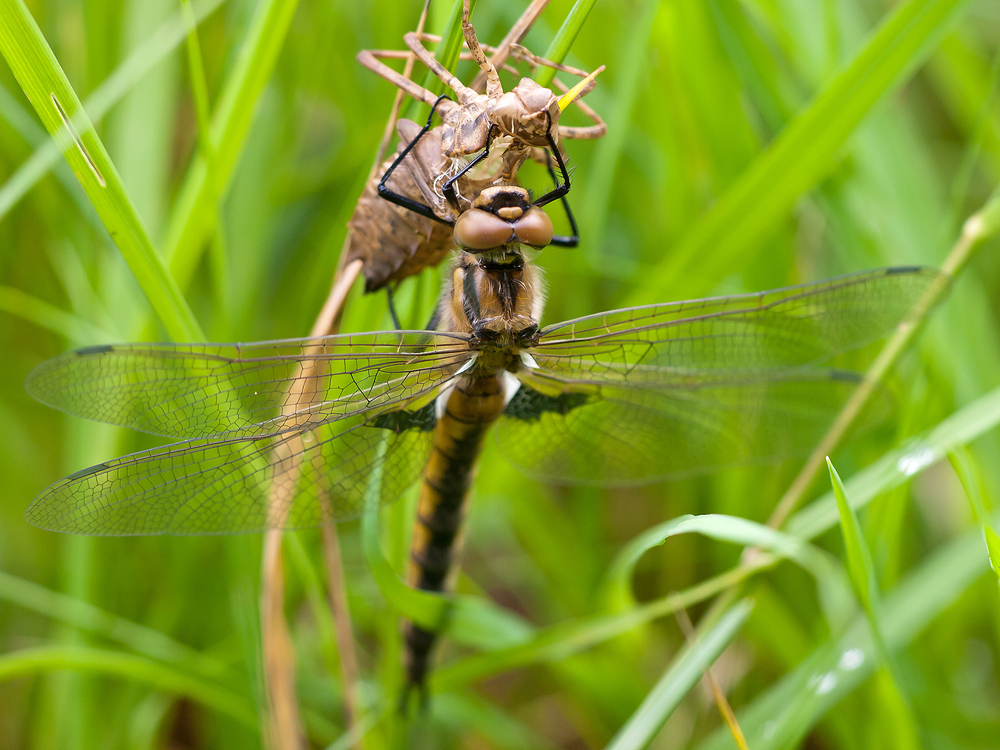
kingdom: Animalia
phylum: Arthropoda
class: Insecta
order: Odonata
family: Corduliidae
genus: Epitheca
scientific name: Epitheca bimaculata
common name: Eurasian baskettail
